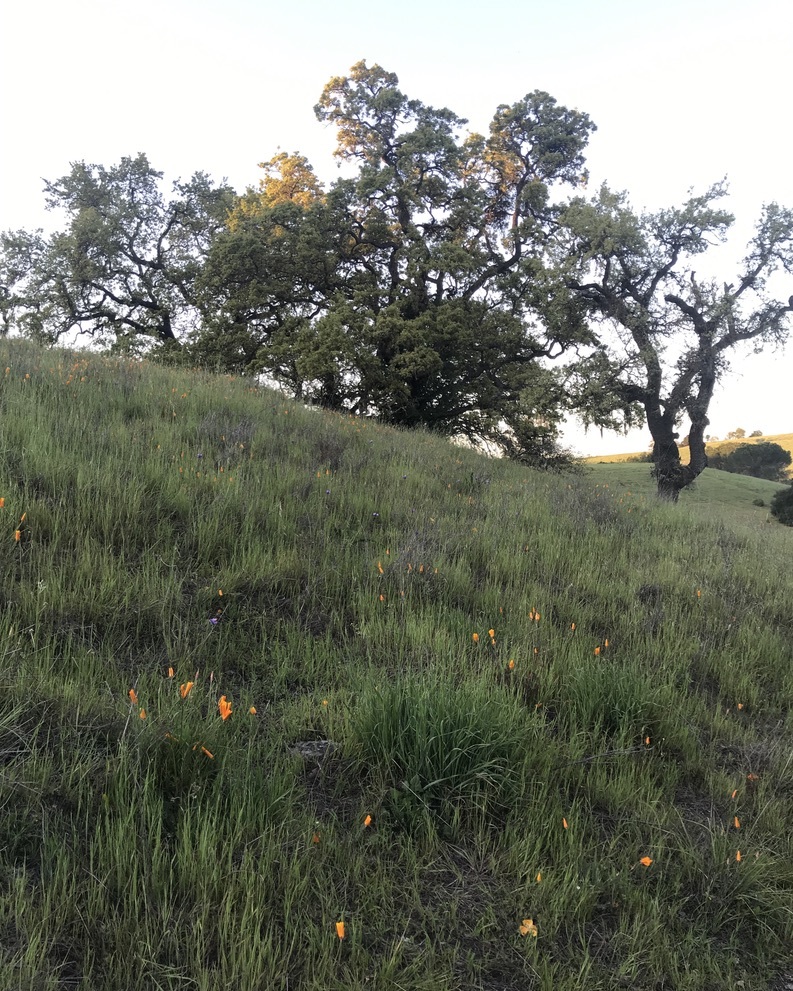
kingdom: Plantae
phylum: Tracheophyta
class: Magnoliopsida
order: Ranunculales
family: Papaveraceae
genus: Eschscholzia
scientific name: Eschscholzia californica
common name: California poppy
